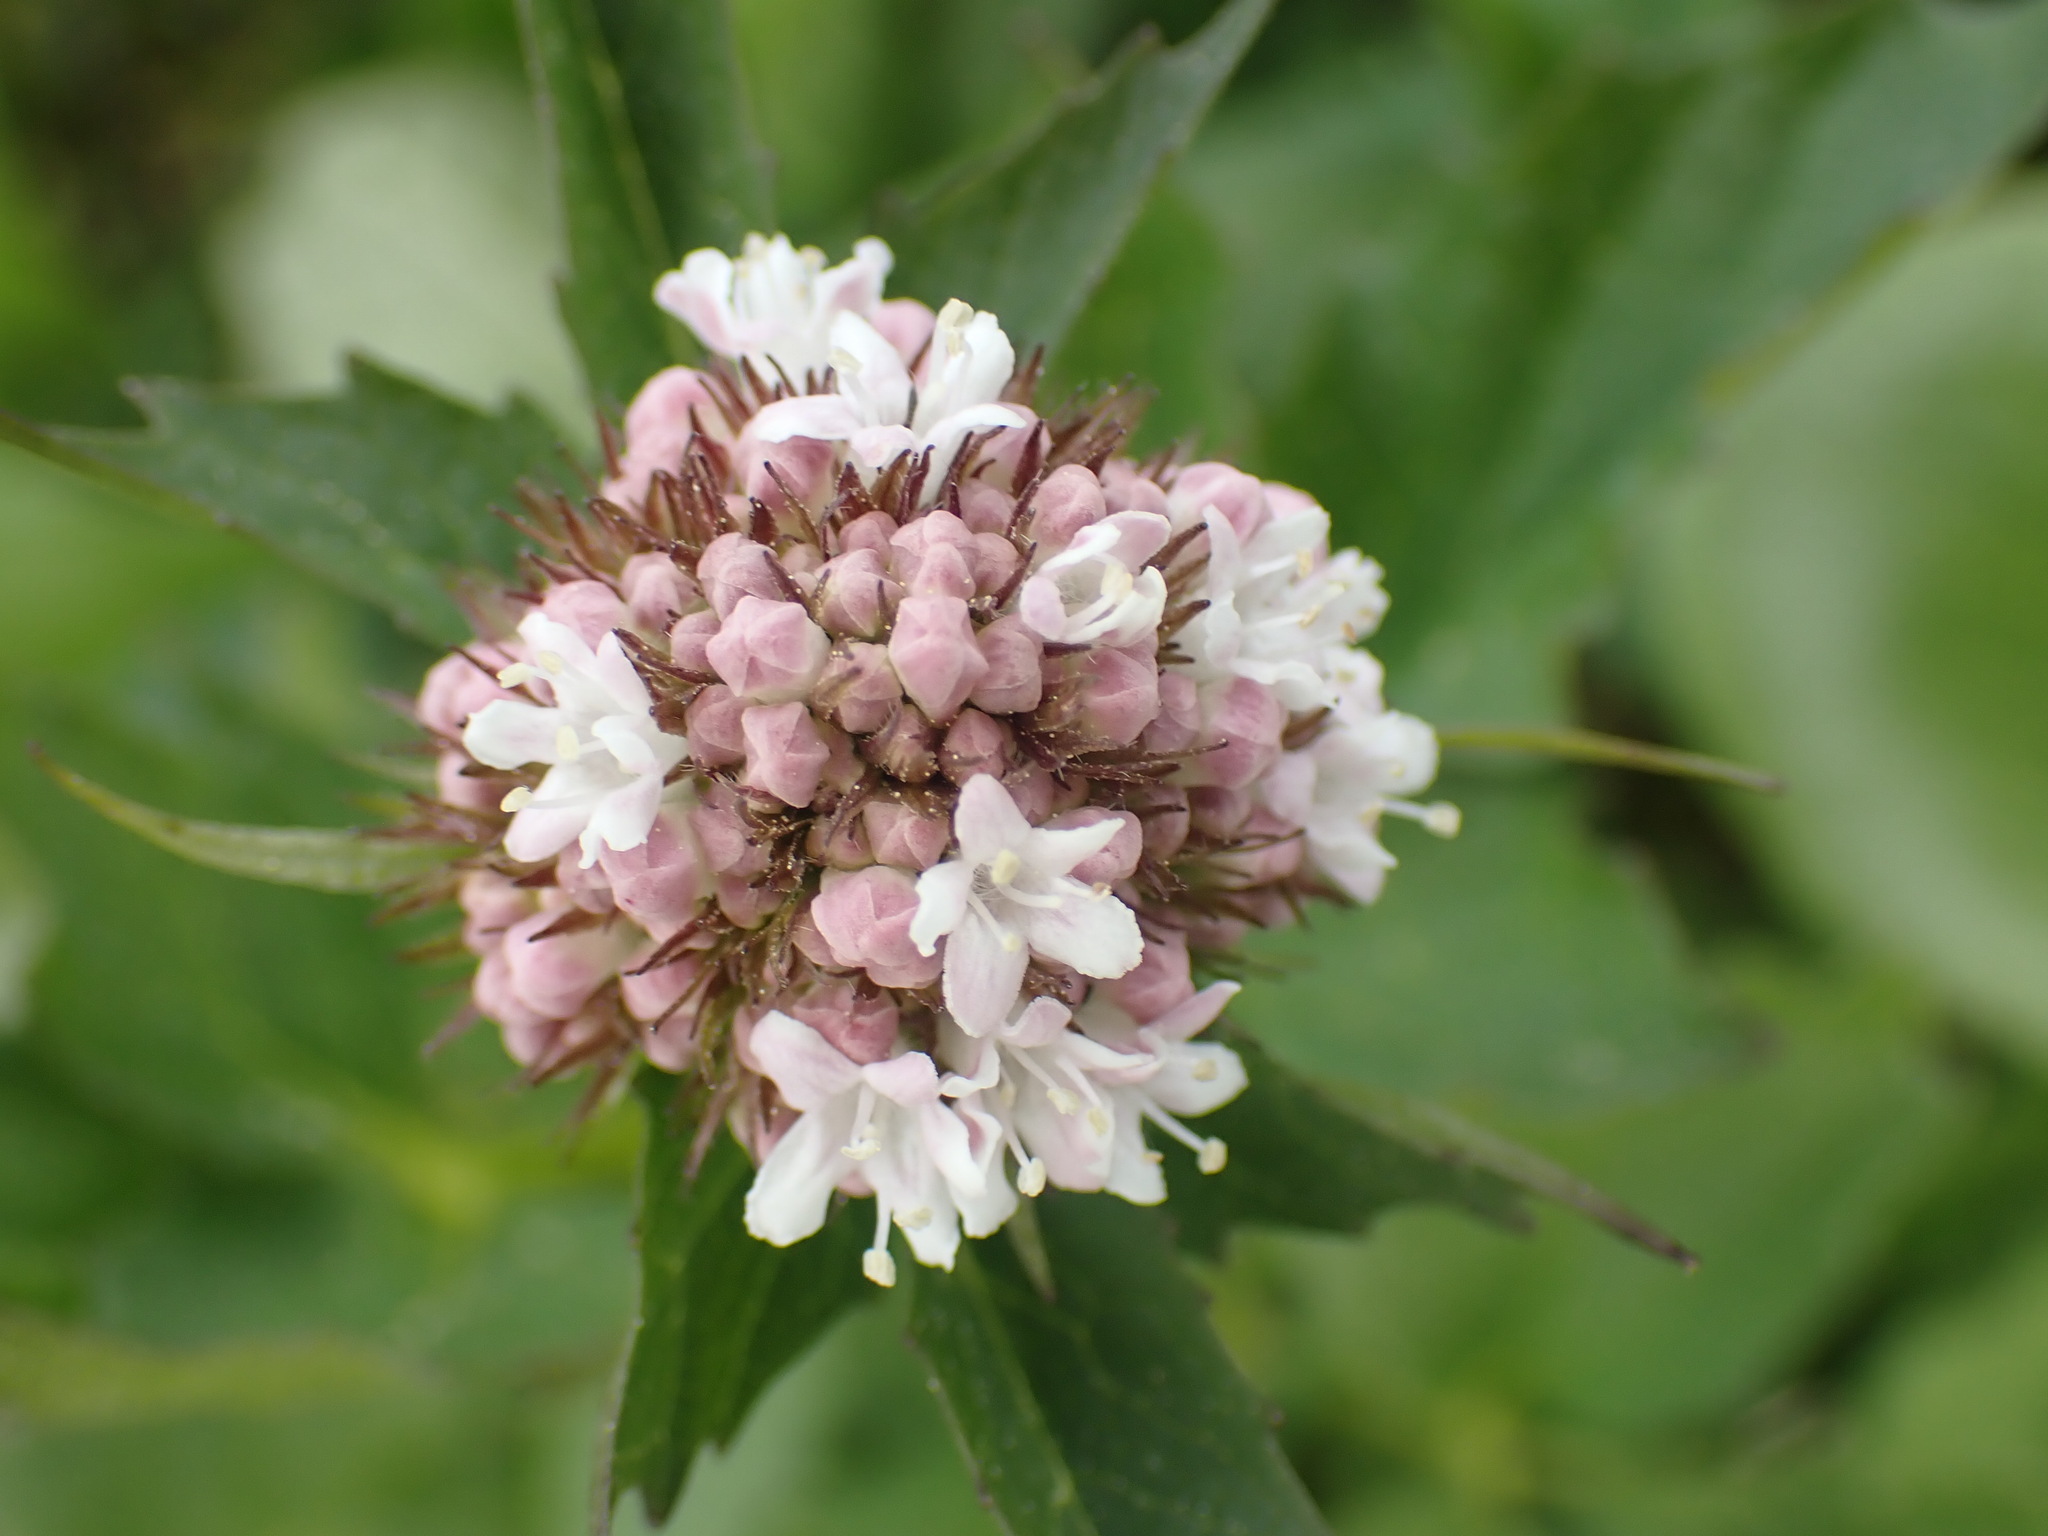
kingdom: Plantae
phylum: Tracheophyta
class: Magnoliopsida
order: Dipsacales
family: Caprifoliaceae
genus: Valeriana
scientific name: Valeriana sitchensis
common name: Pacific valerian
